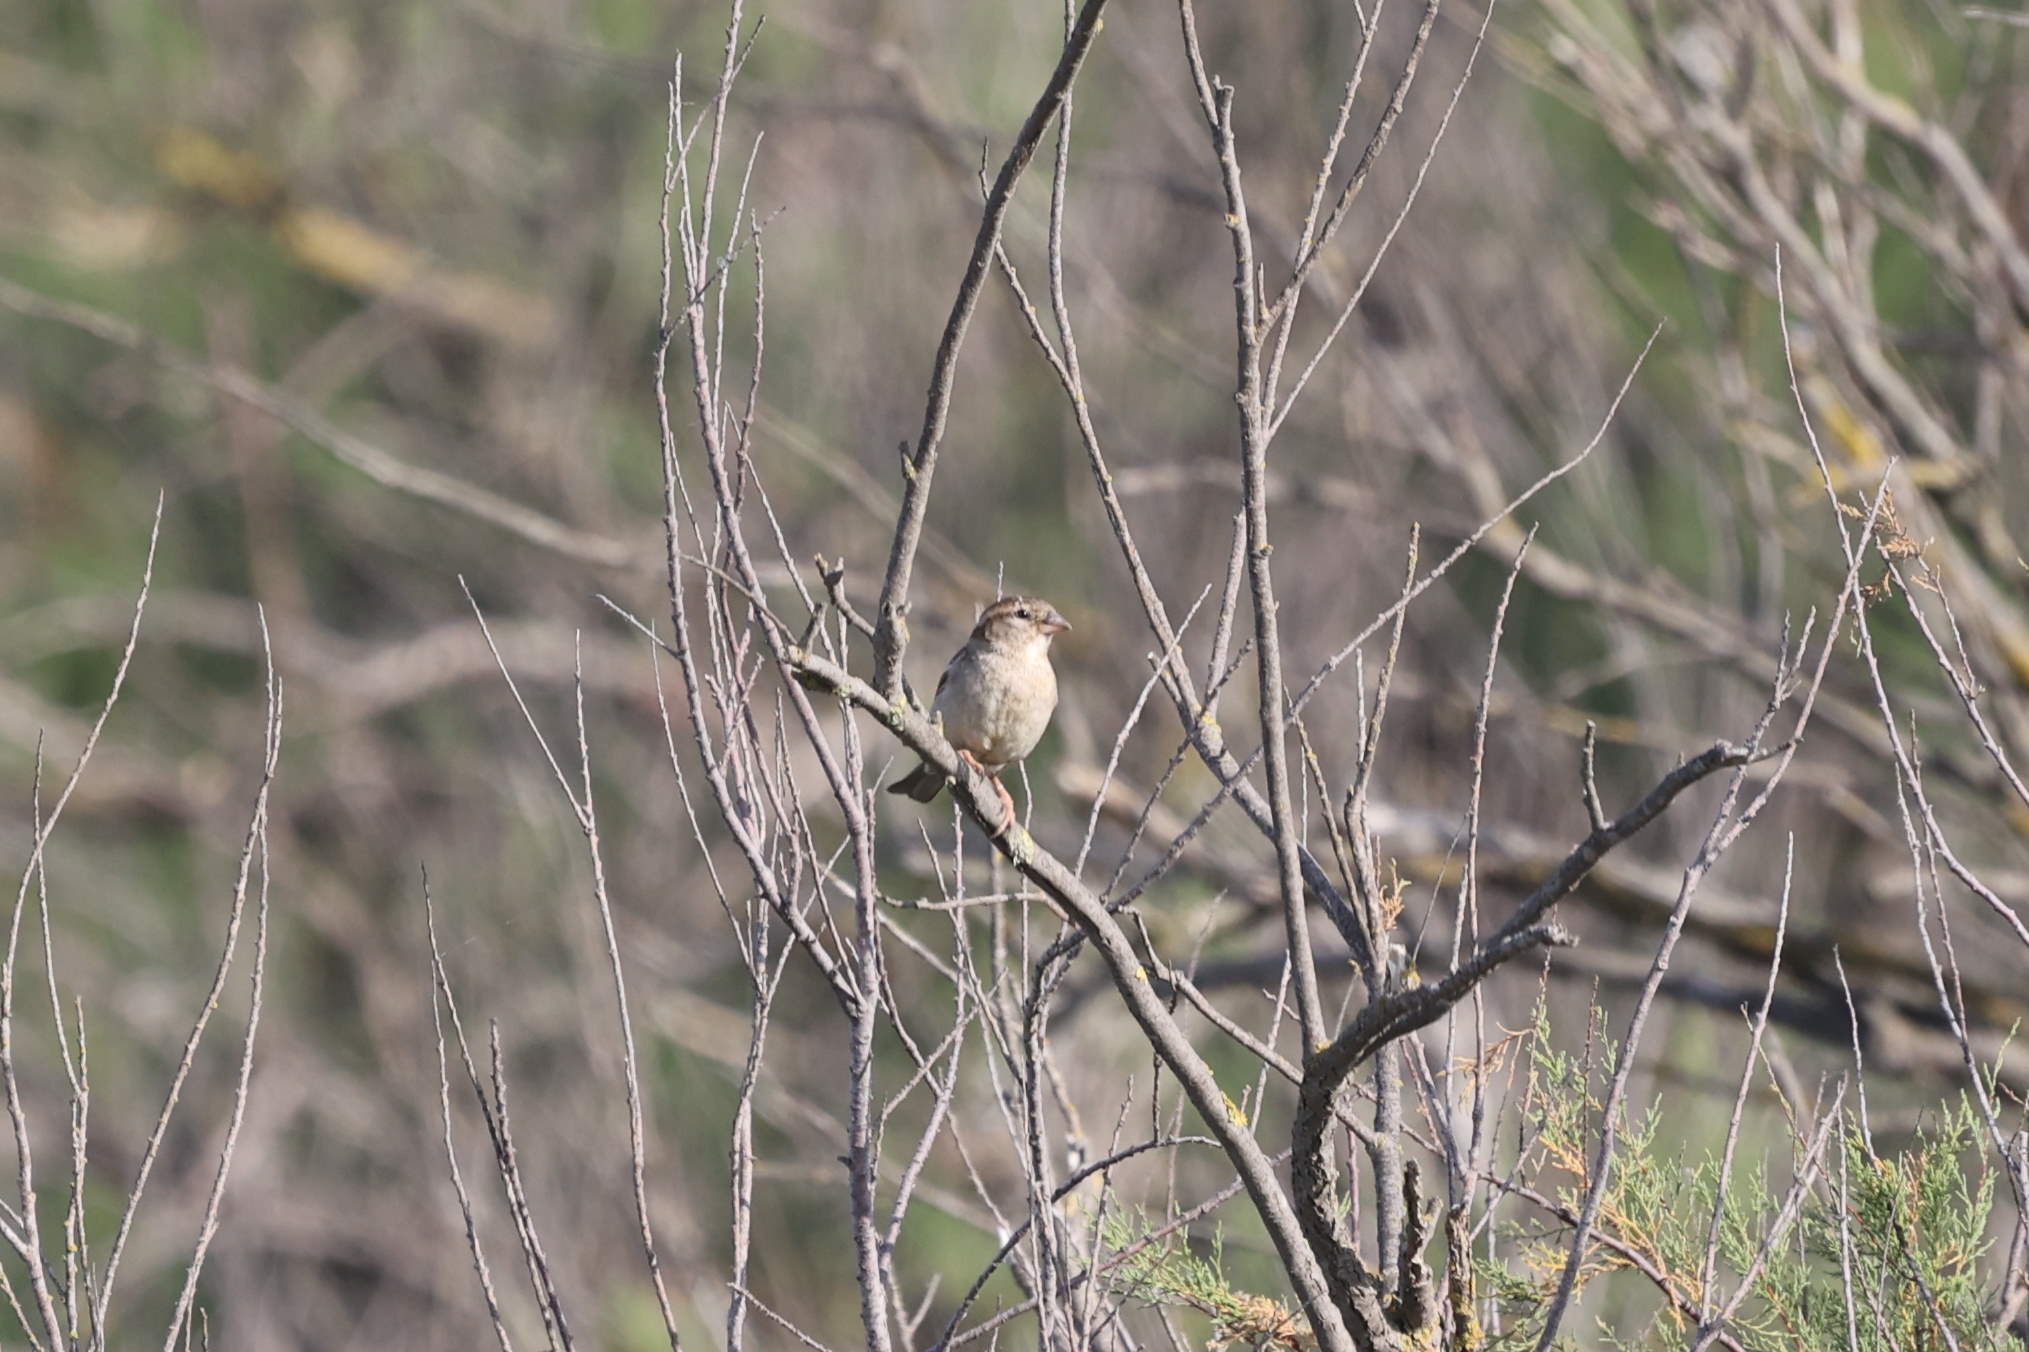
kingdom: Animalia
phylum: Chordata
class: Aves
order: Passeriformes
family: Passeridae
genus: Passer
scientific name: Passer domesticus
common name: House sparrow
